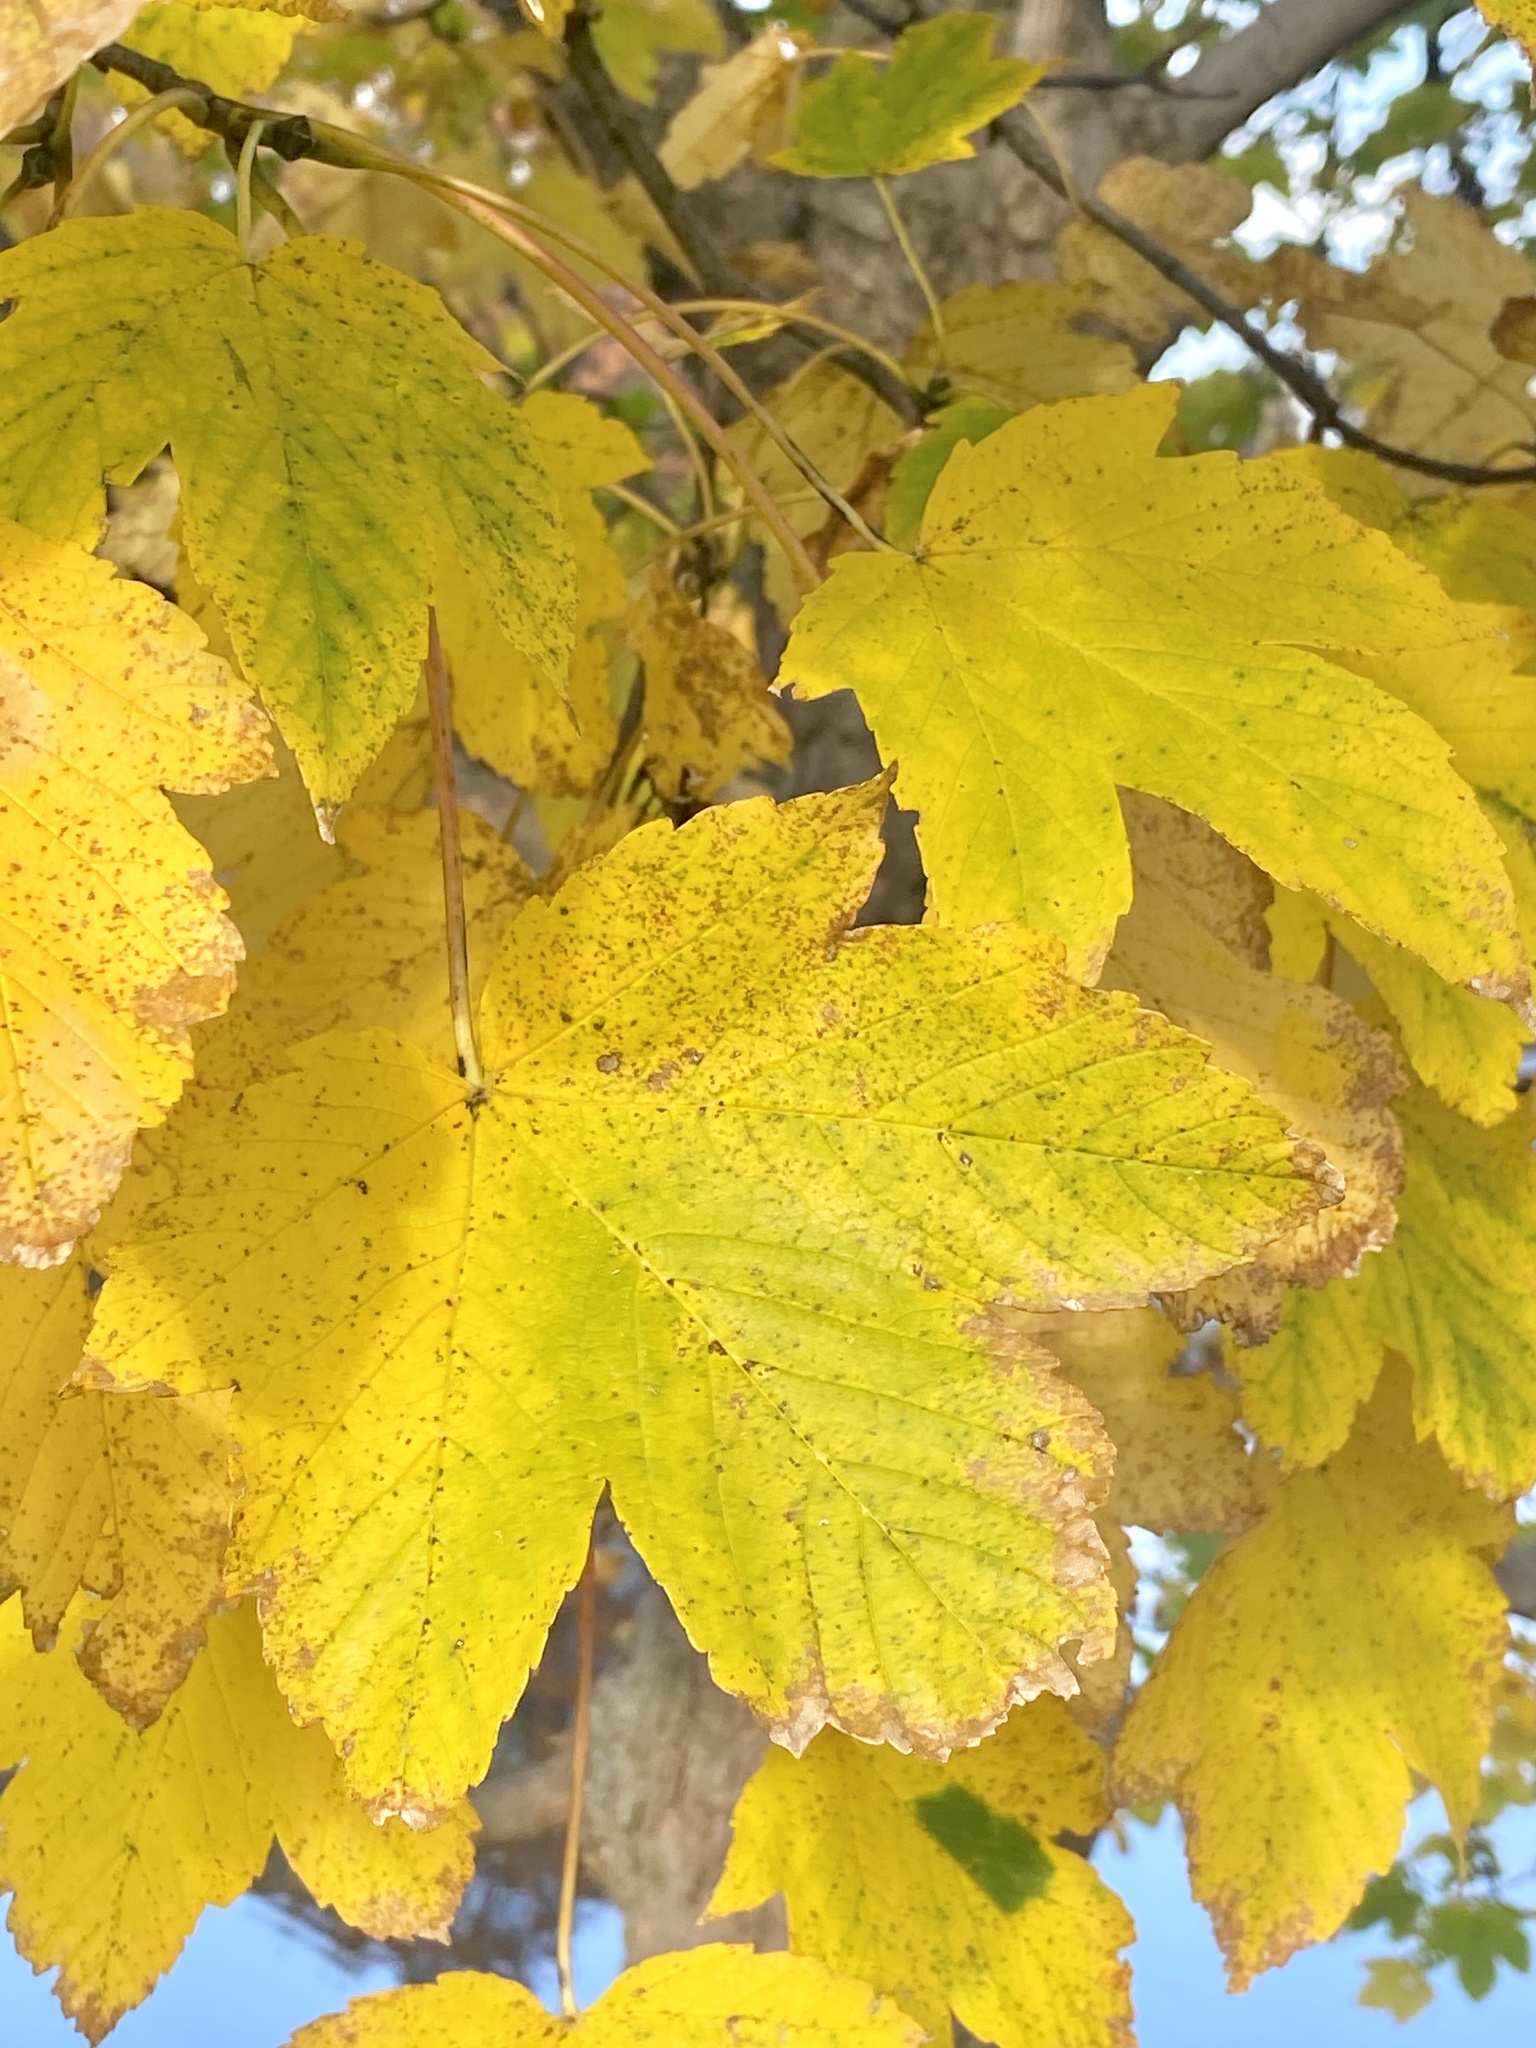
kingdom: Plantae
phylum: Tracheophyta
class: Magnoliopsida
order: Sapindales
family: Sapindaceae
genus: Acer
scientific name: Acer pseudoplatanus
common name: Sycamore
